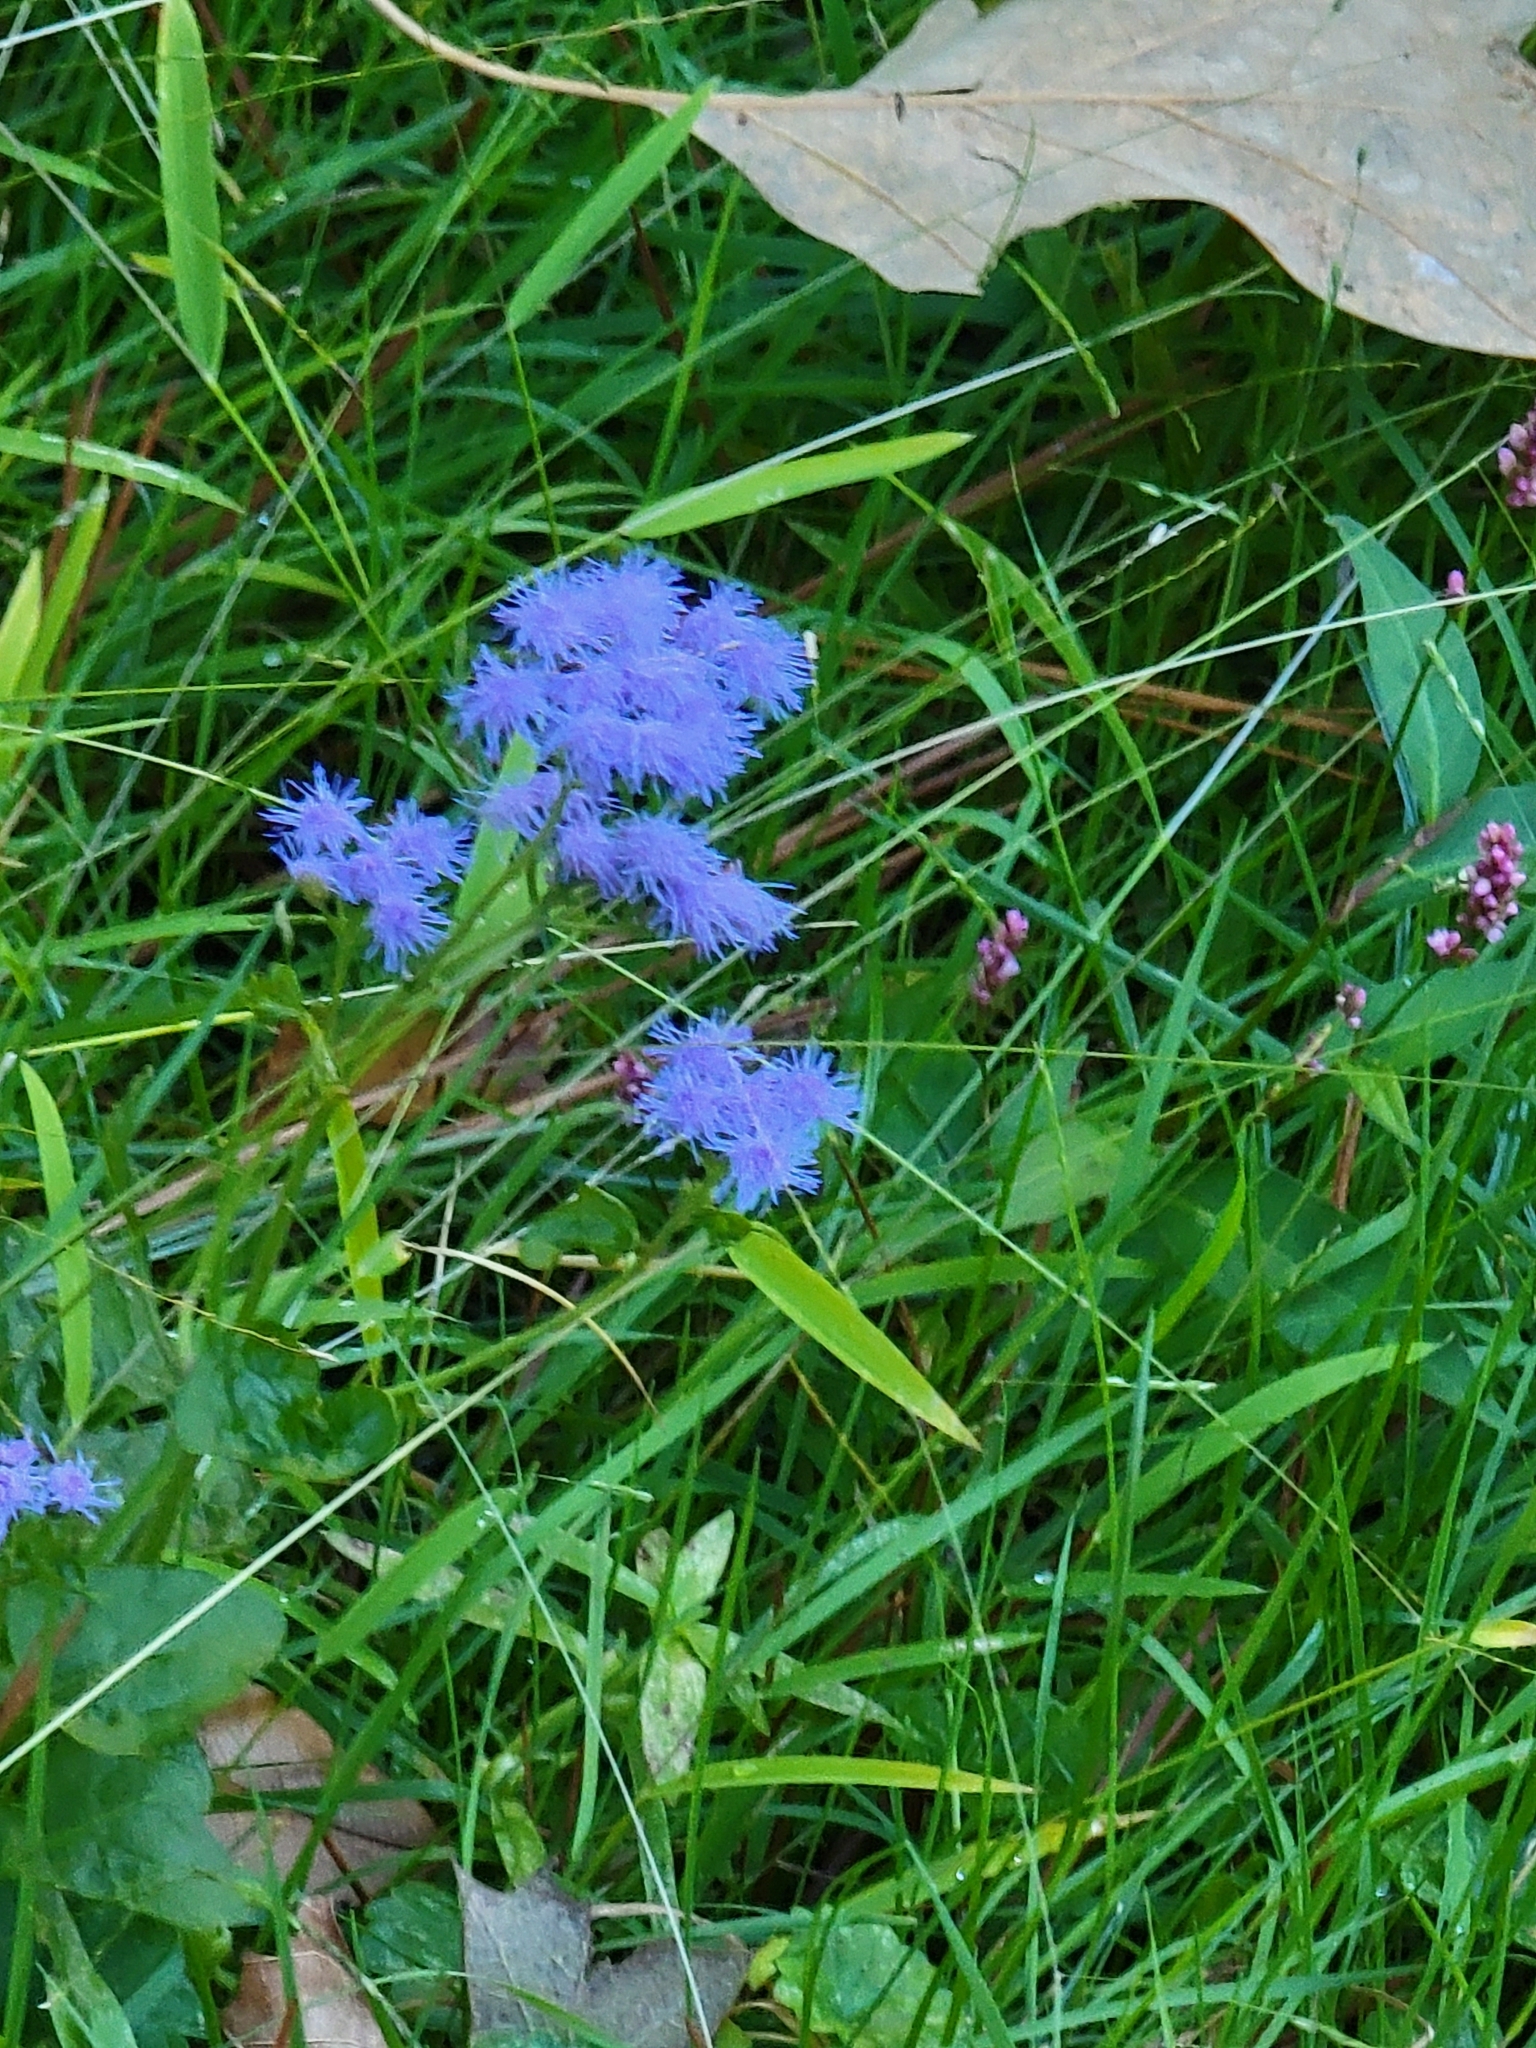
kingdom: Plantae
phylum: Tracheophyta
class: Magnoliopsida
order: Asterales
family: Asteraceae
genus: Conoclinium
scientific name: Conoclinium coelestinum
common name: Blue mistflower
